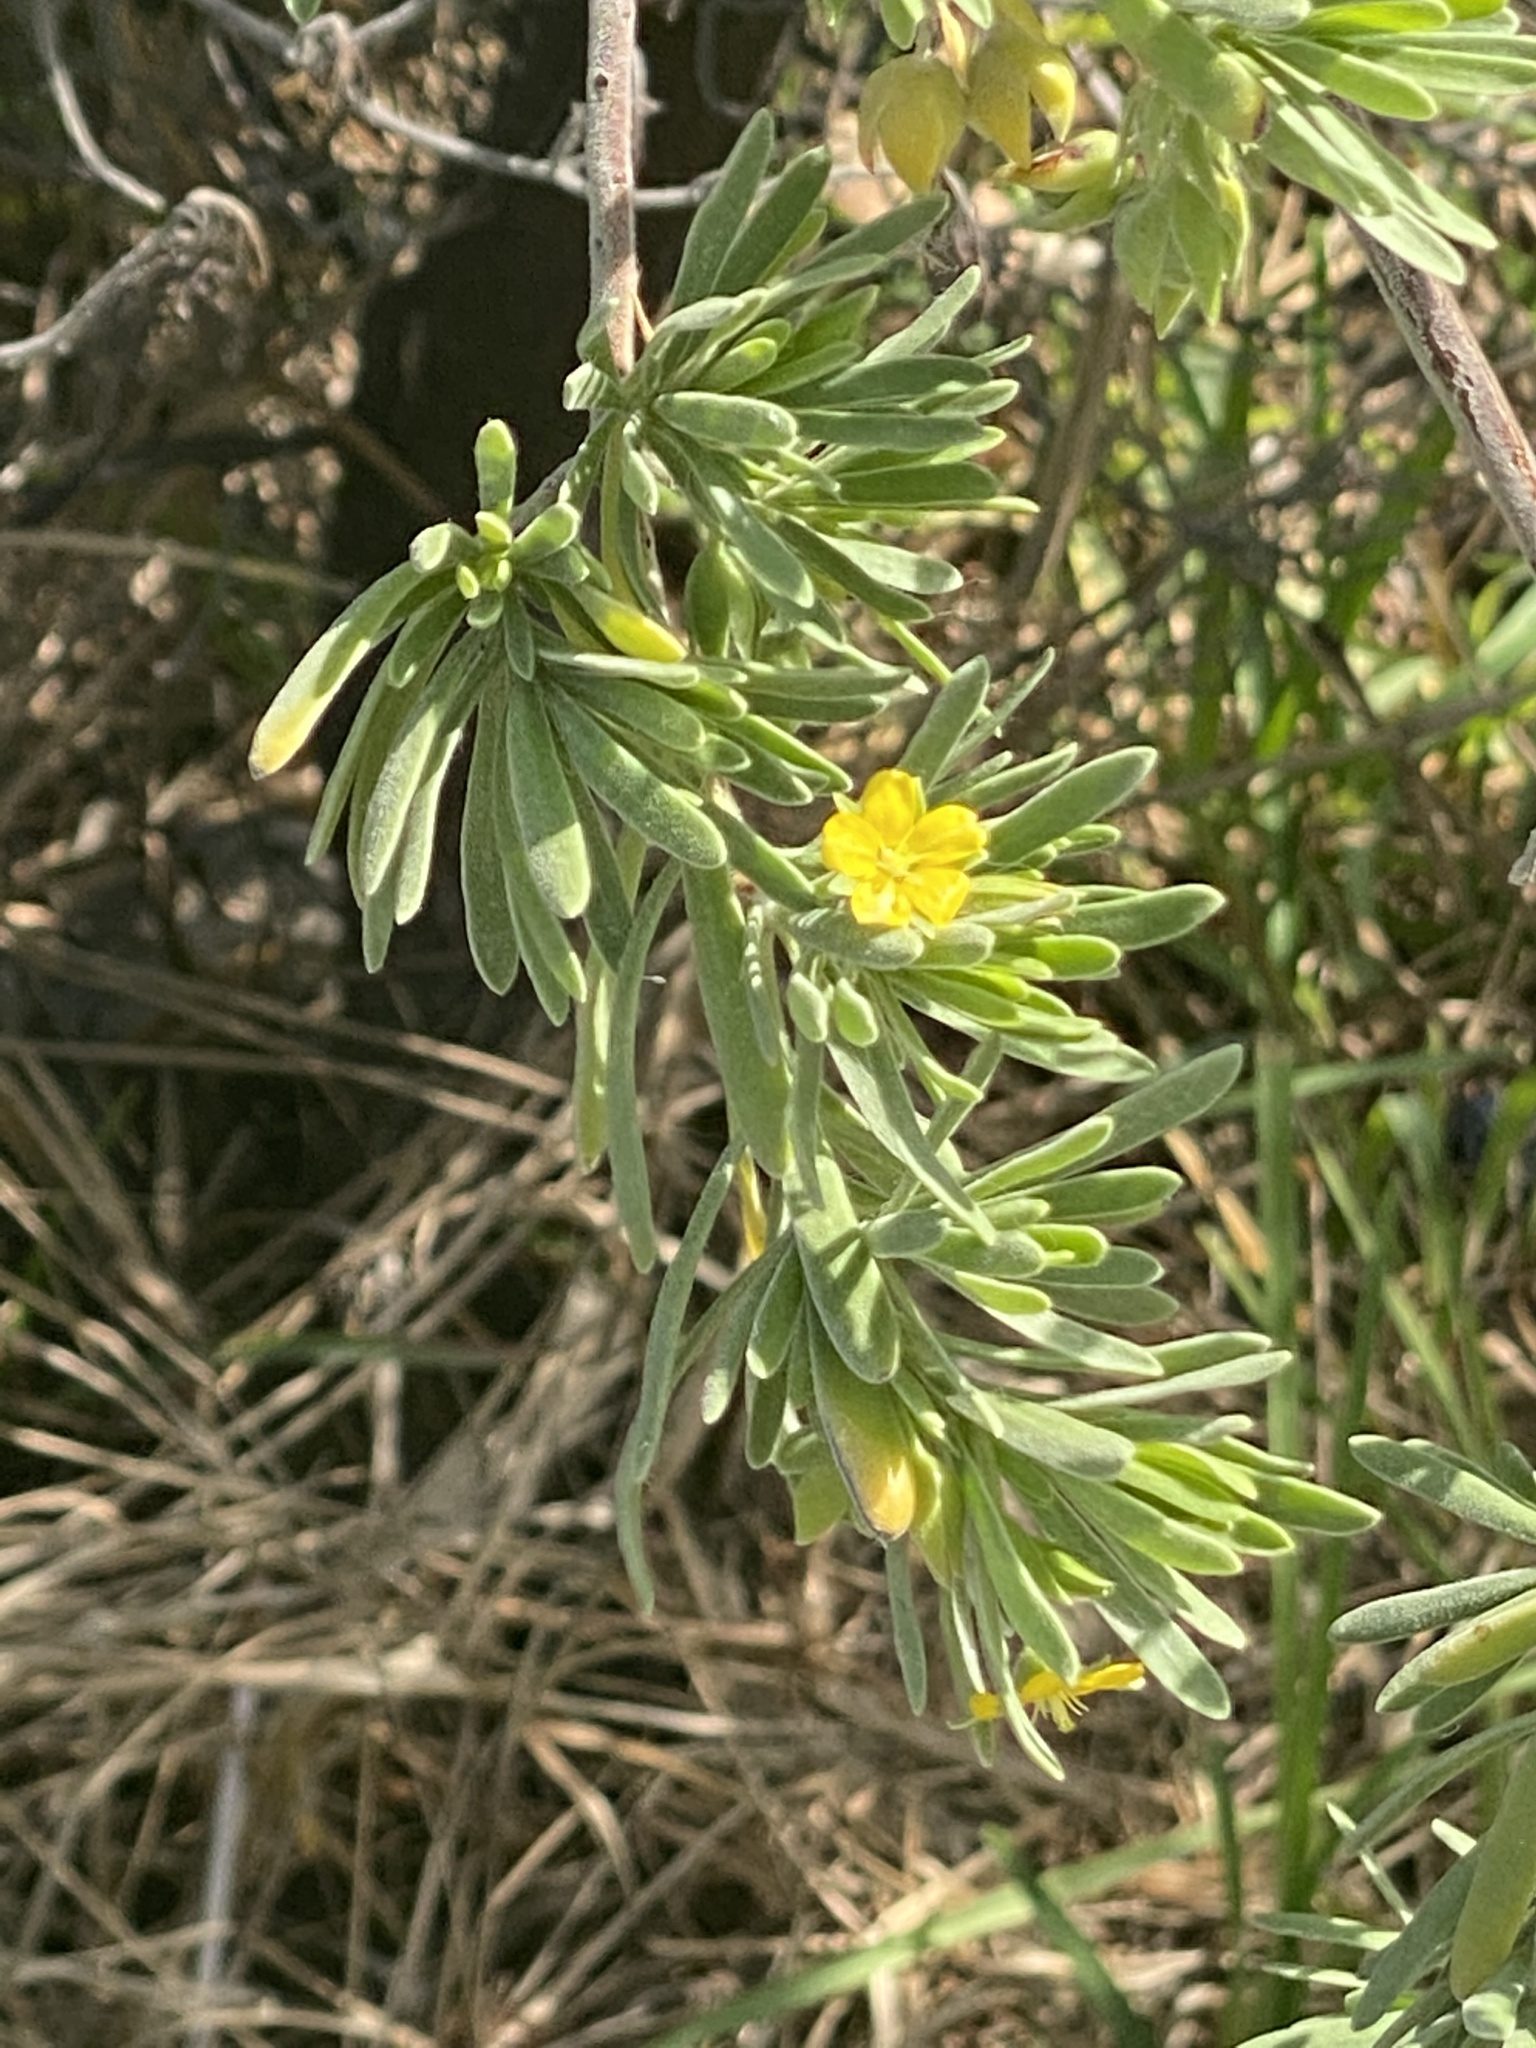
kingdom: Plantae
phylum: Tracheophyta
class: Magnoliopsida
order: Fabales
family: Surianaceae
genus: Suriana
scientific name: Suriana maritima
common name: Bay-cedar
